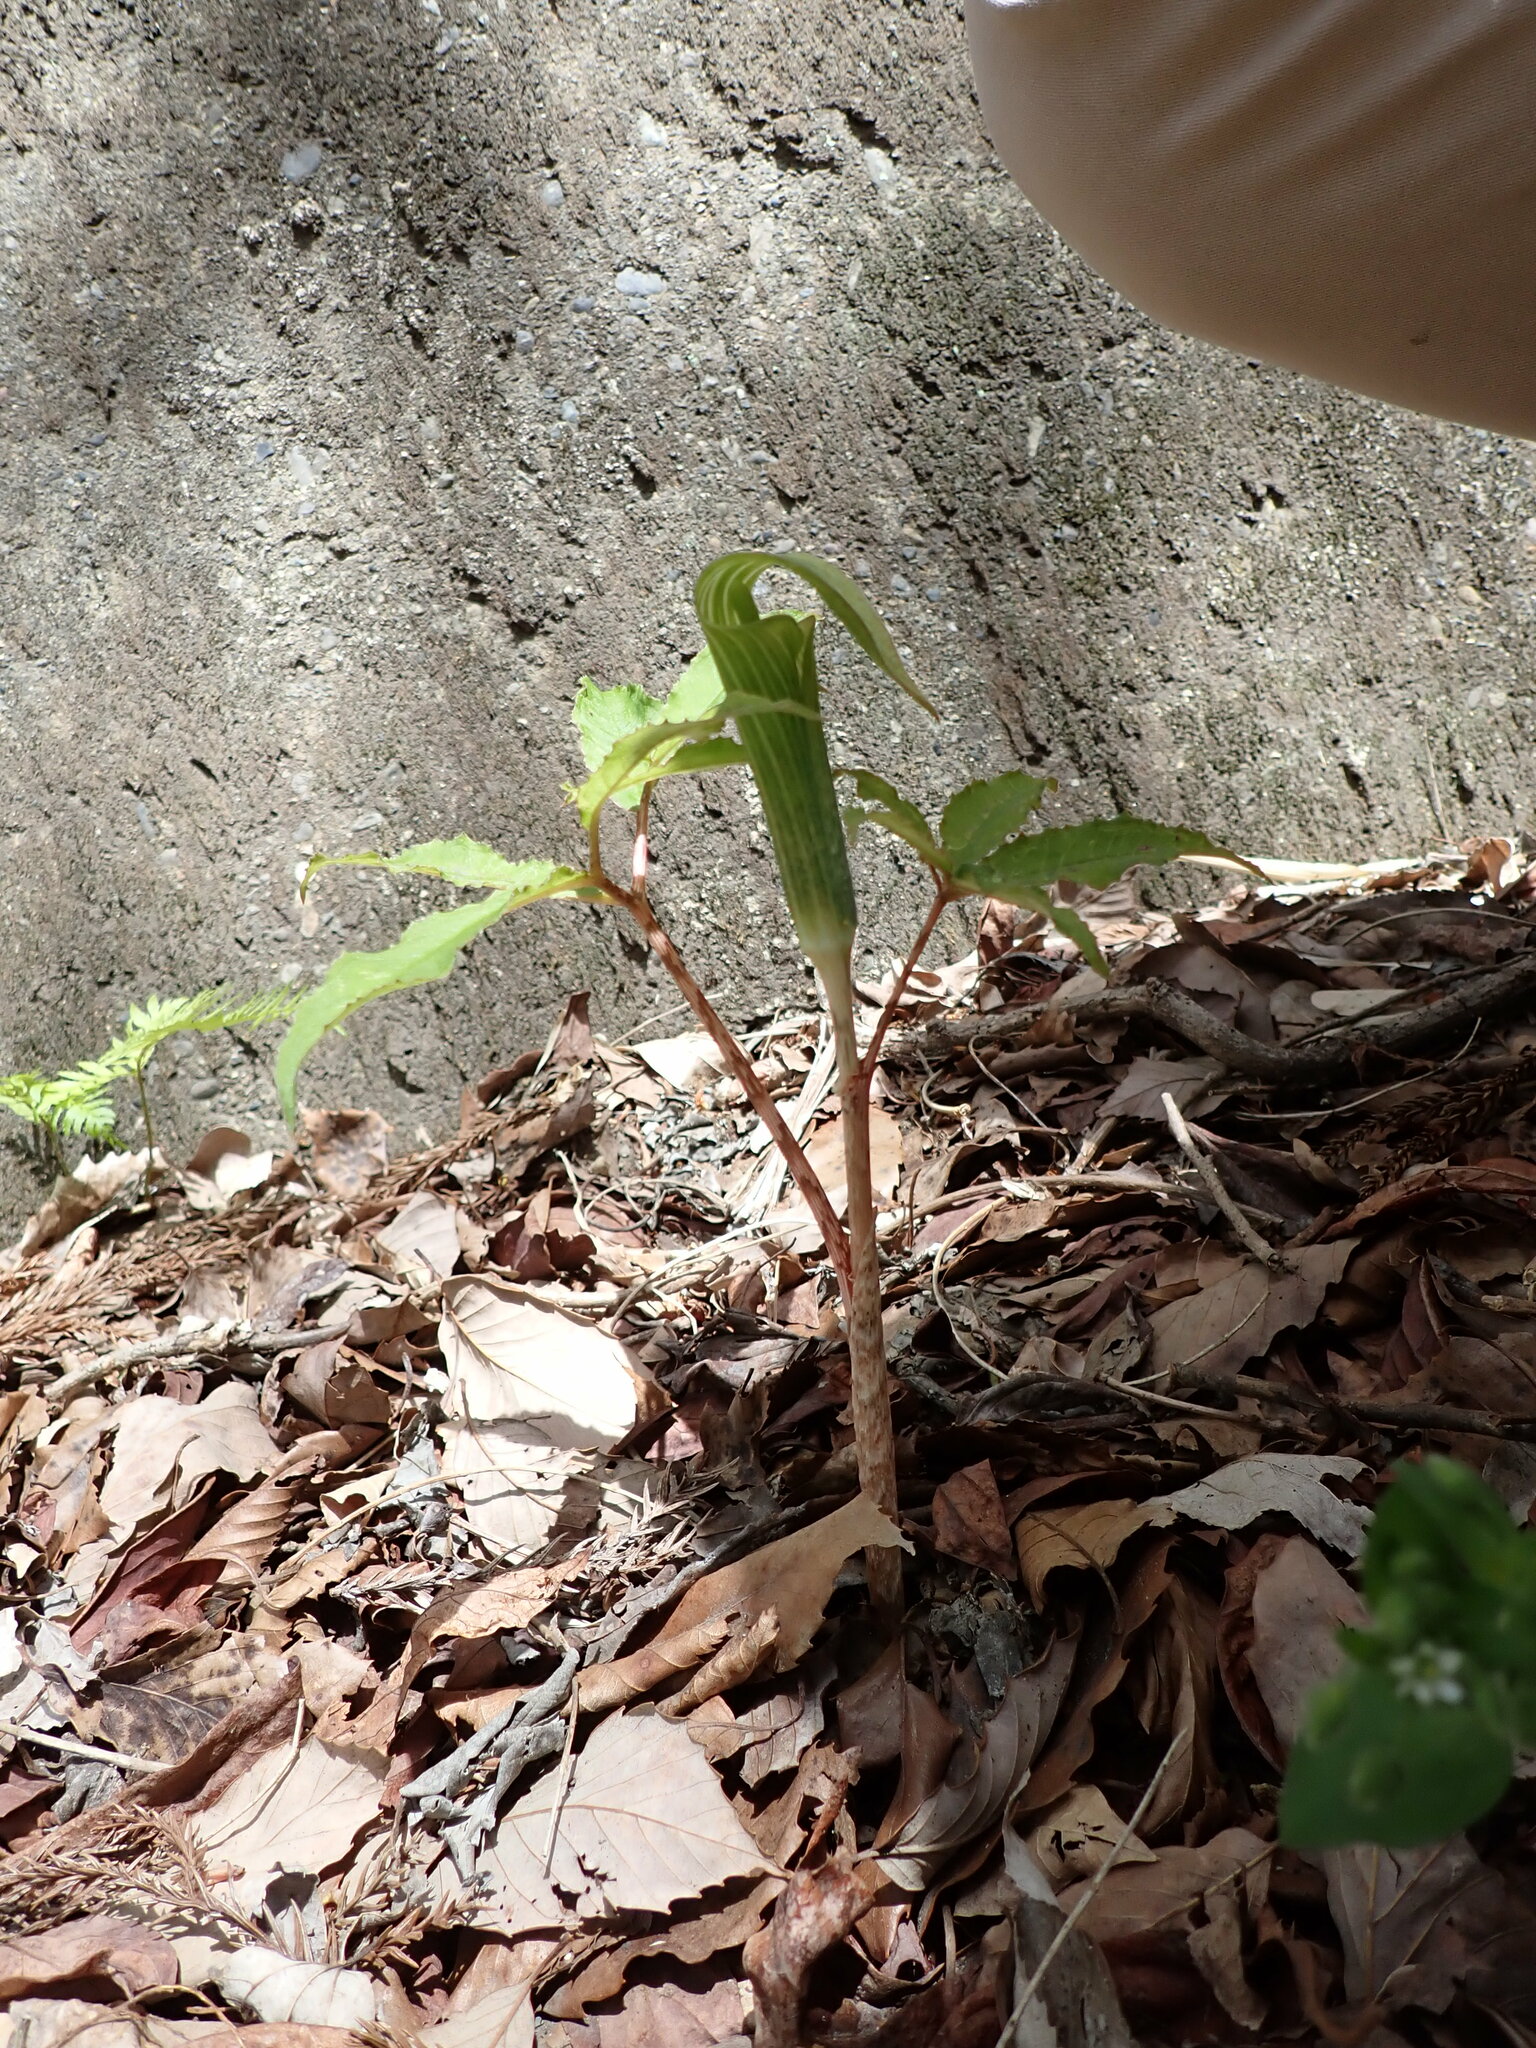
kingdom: Plantae
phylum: Tracheophyta
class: Liliopsida
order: Alismatales
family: Araceae
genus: Arisaema
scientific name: Arisaema japonicum
